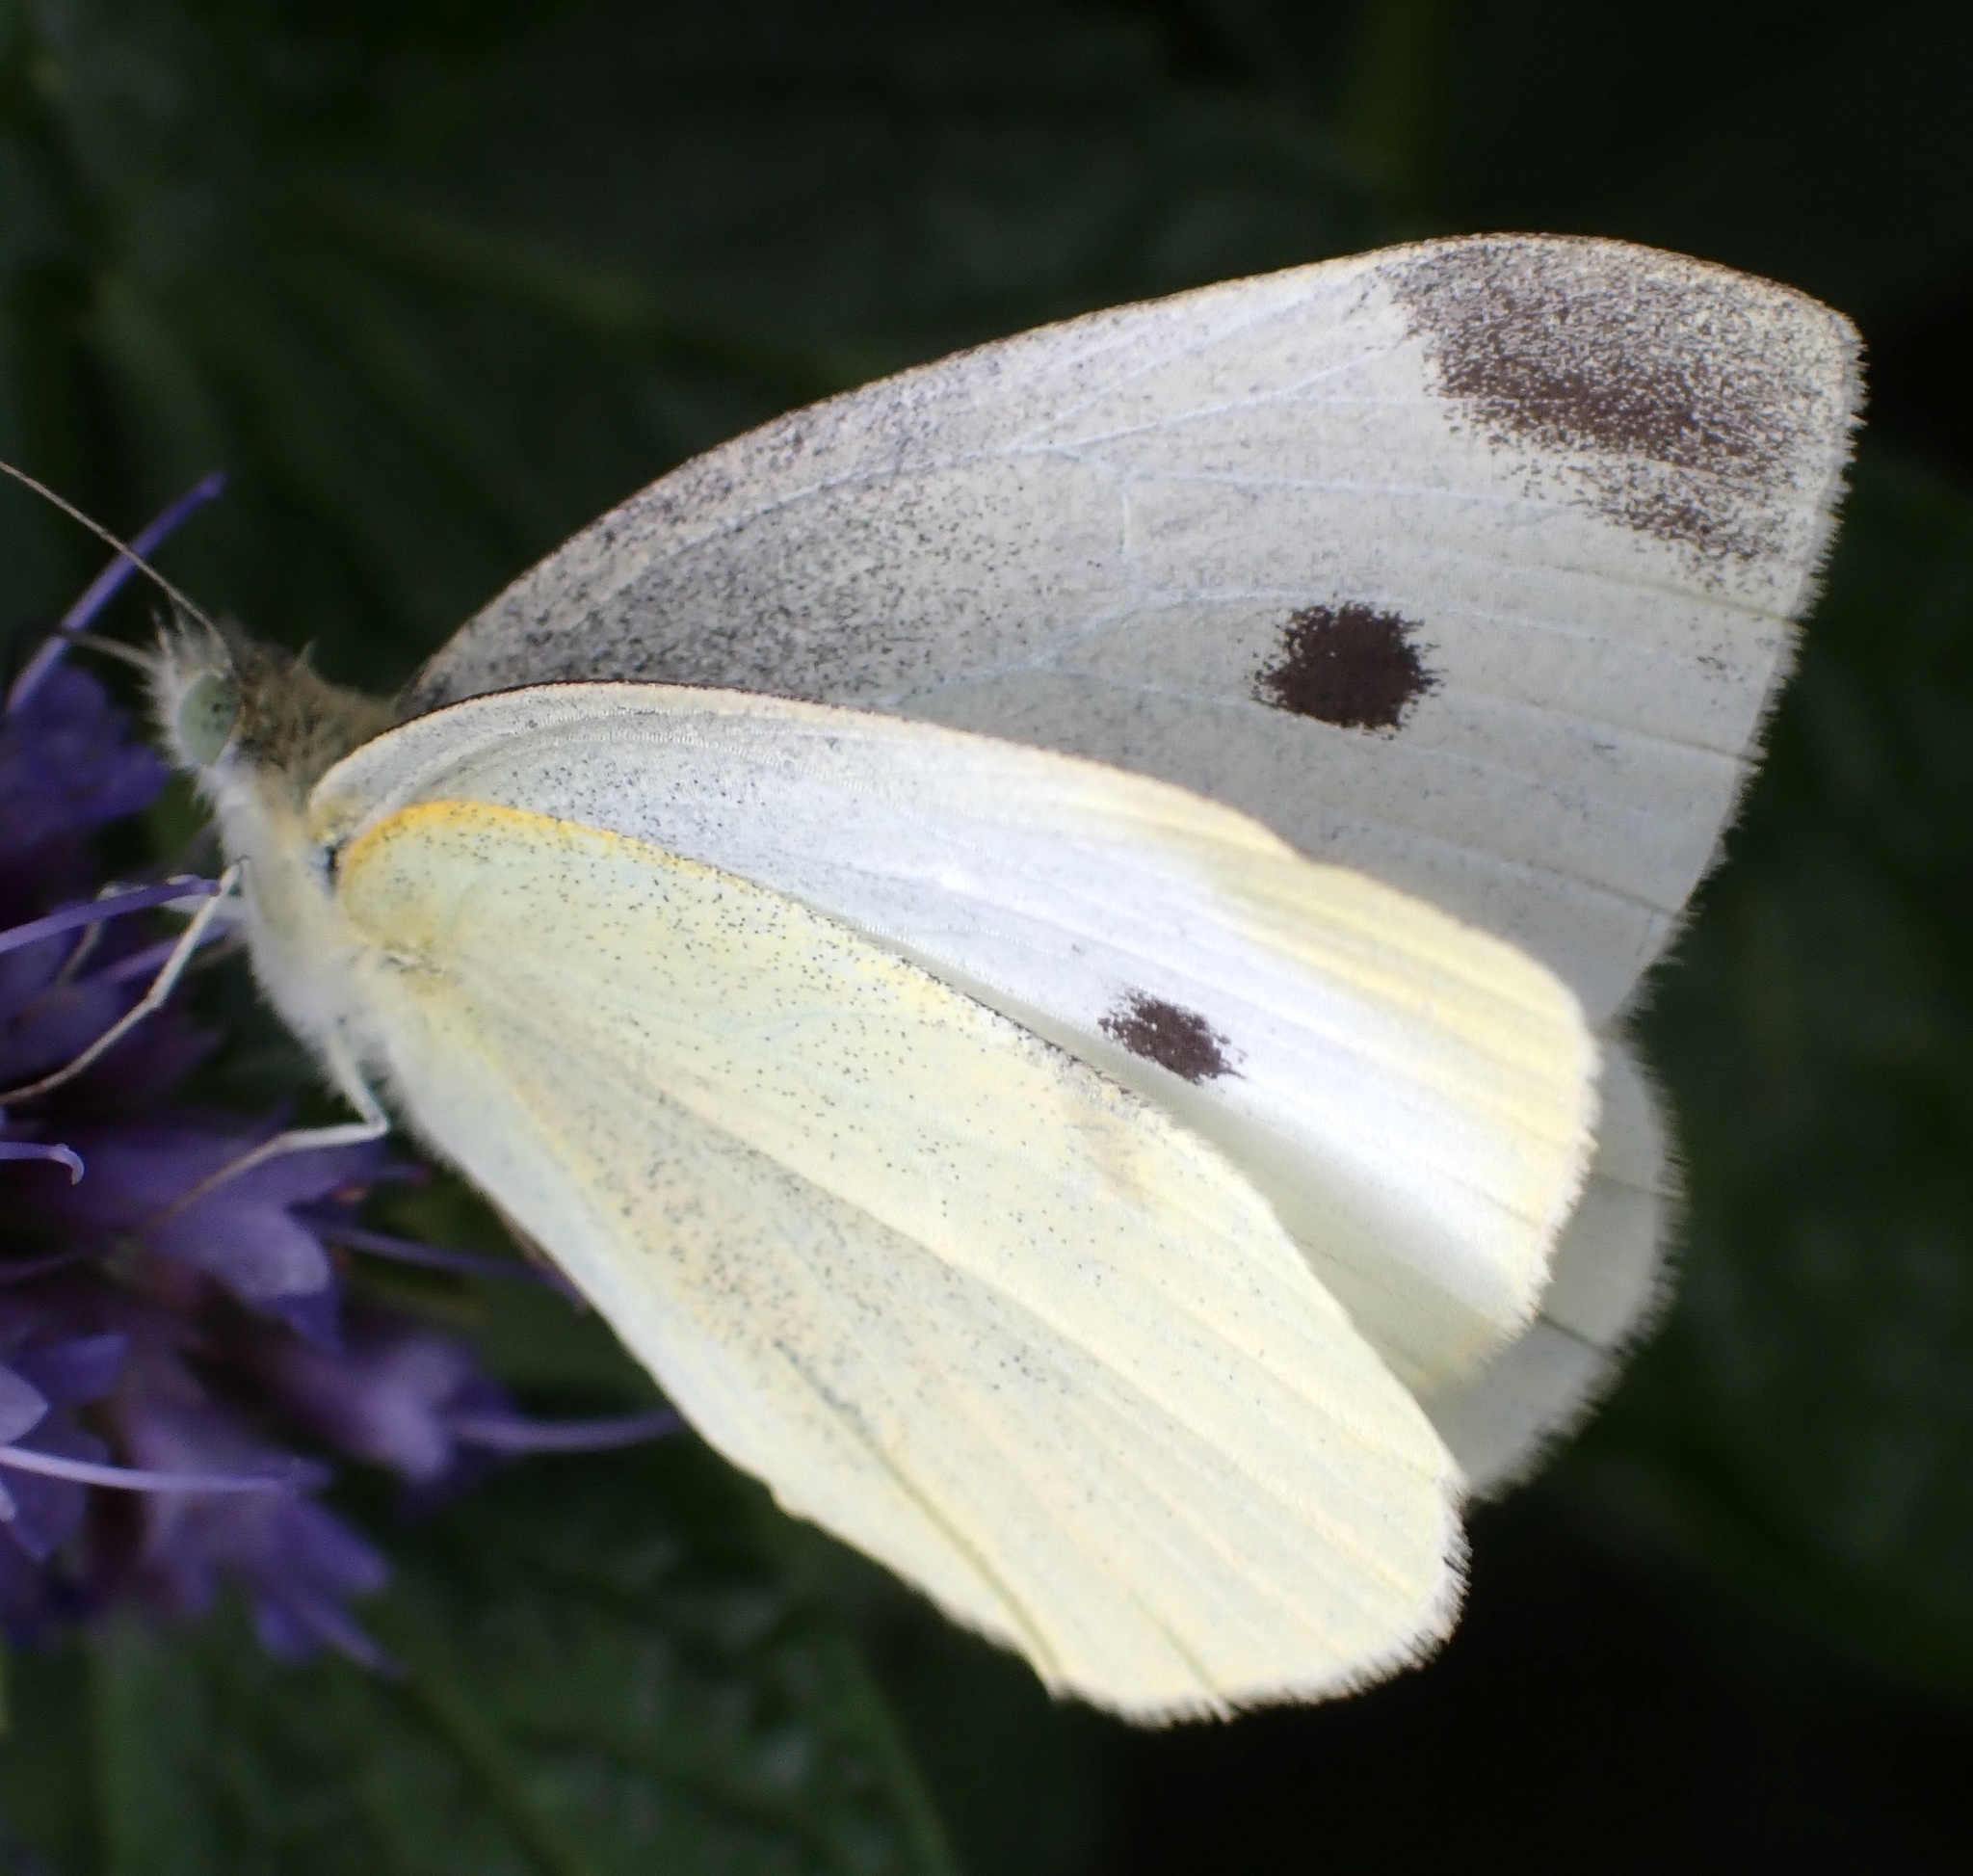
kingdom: Animalia
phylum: Arthropoda
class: Insecta
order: Lepidoptera
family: Pieridae
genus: Pieris
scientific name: Pieris rapae
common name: Small white
